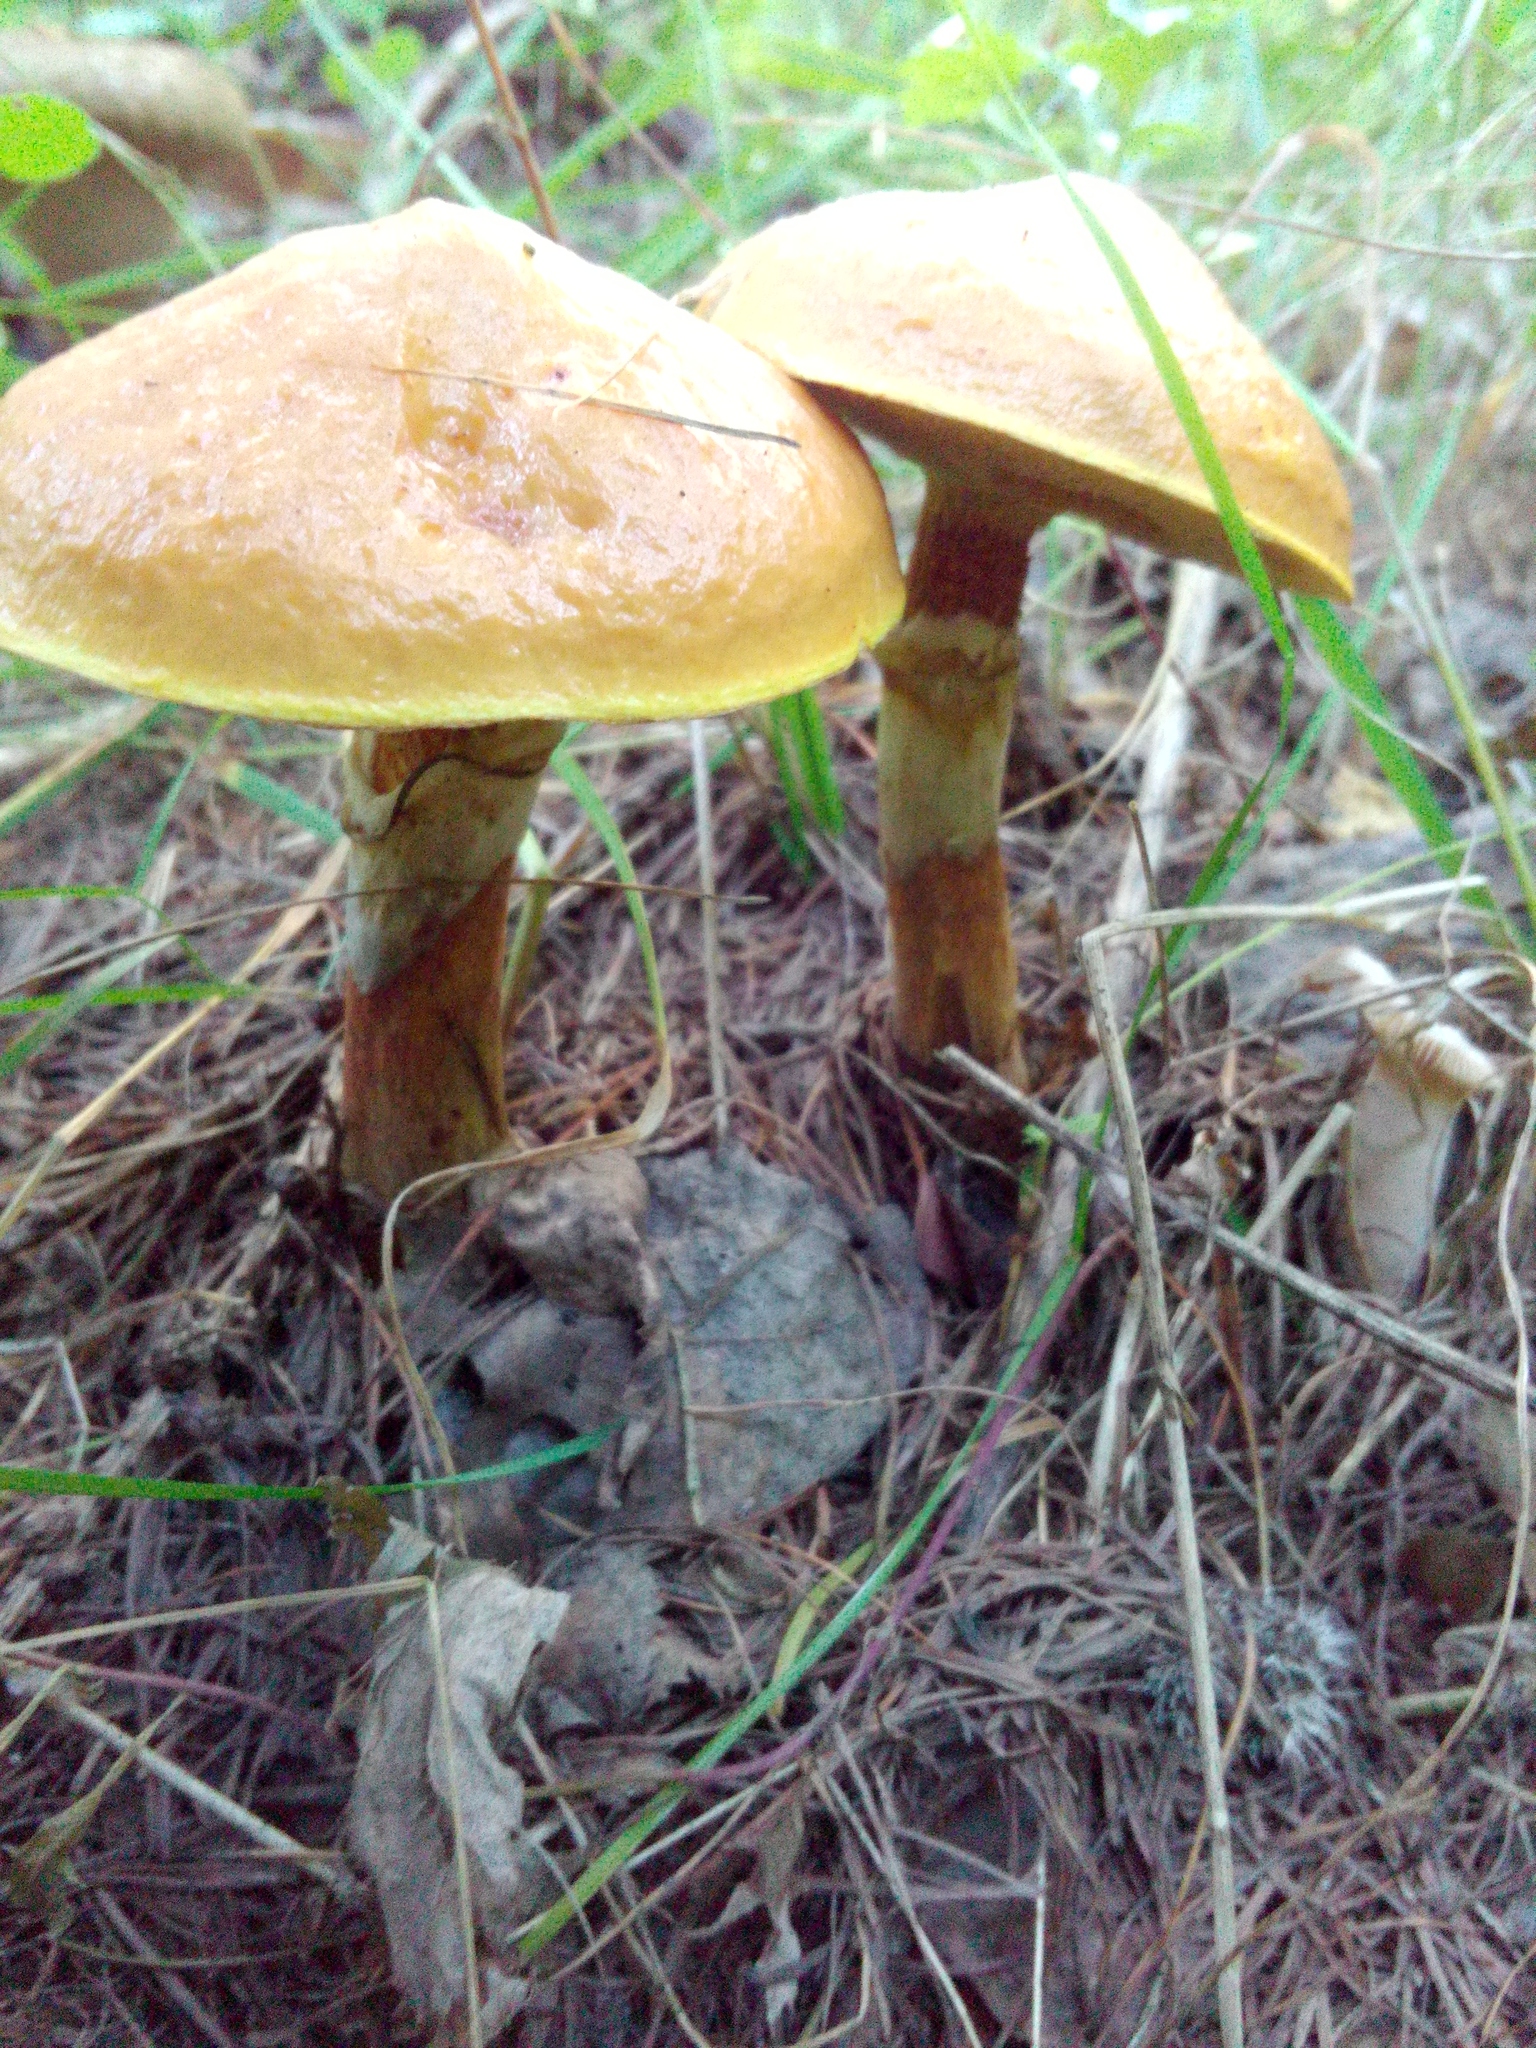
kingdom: Fungi
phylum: Basidiomycota
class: Agaricomycetes
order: Boletales
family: Suillaceae
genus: Suillus
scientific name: Suillus grevillei
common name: Larch bolete
